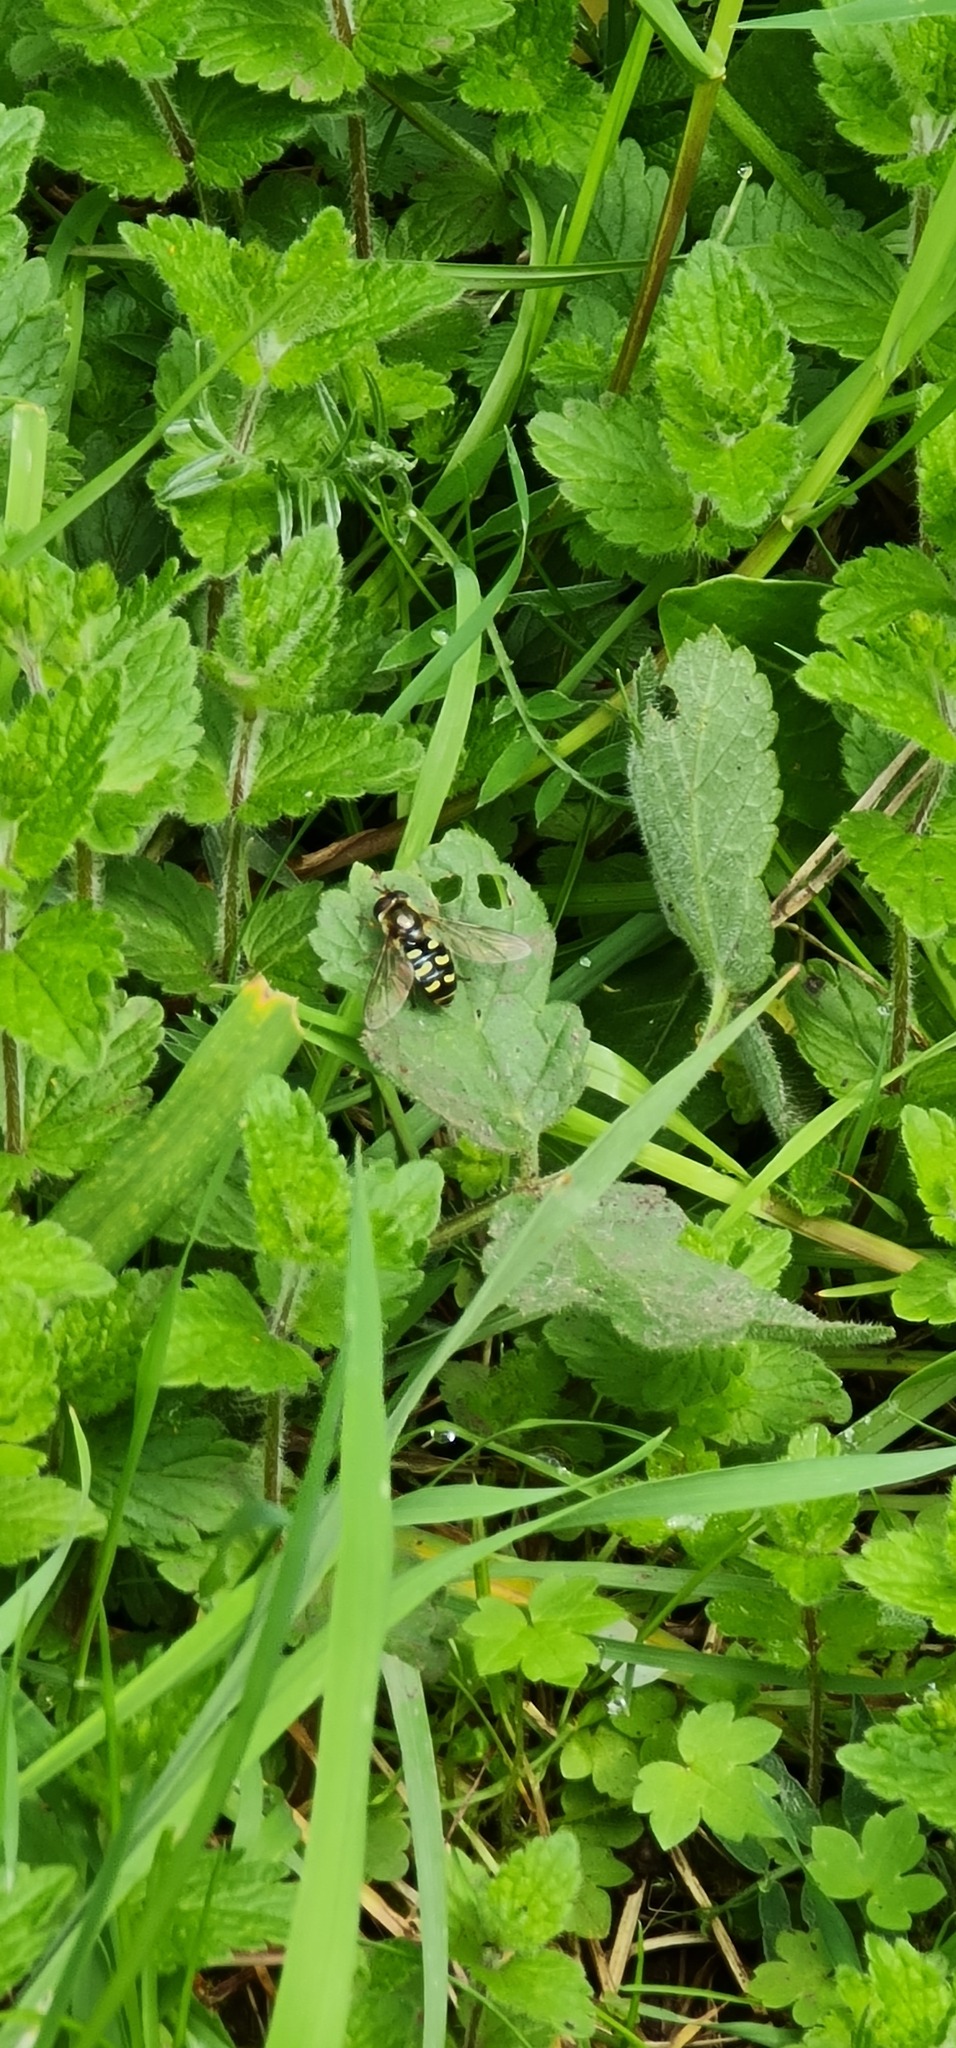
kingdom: Animalia
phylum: Arthropoda
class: Insecta
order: Diptera
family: Syrphidae
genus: Eupeodes
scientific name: Eupeodes
